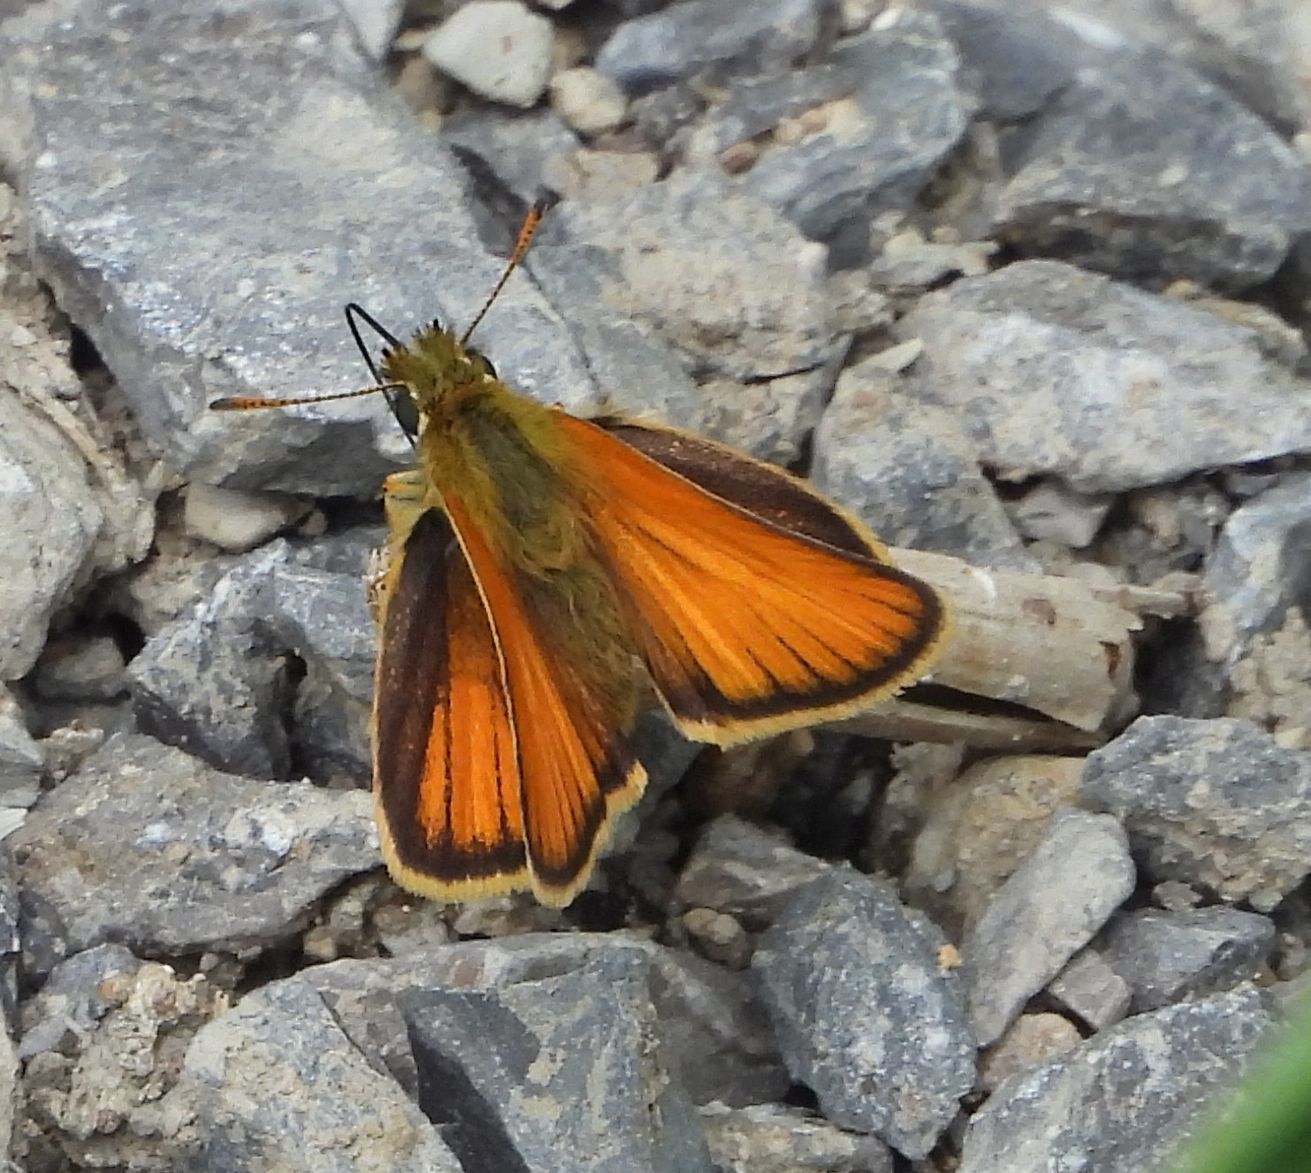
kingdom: Animalia
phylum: Arthropoda
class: Insecta
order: Lepidoptera
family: Hesperiidae
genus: Thymelicus
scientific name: Thymelicus lineola
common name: Essex skipper
